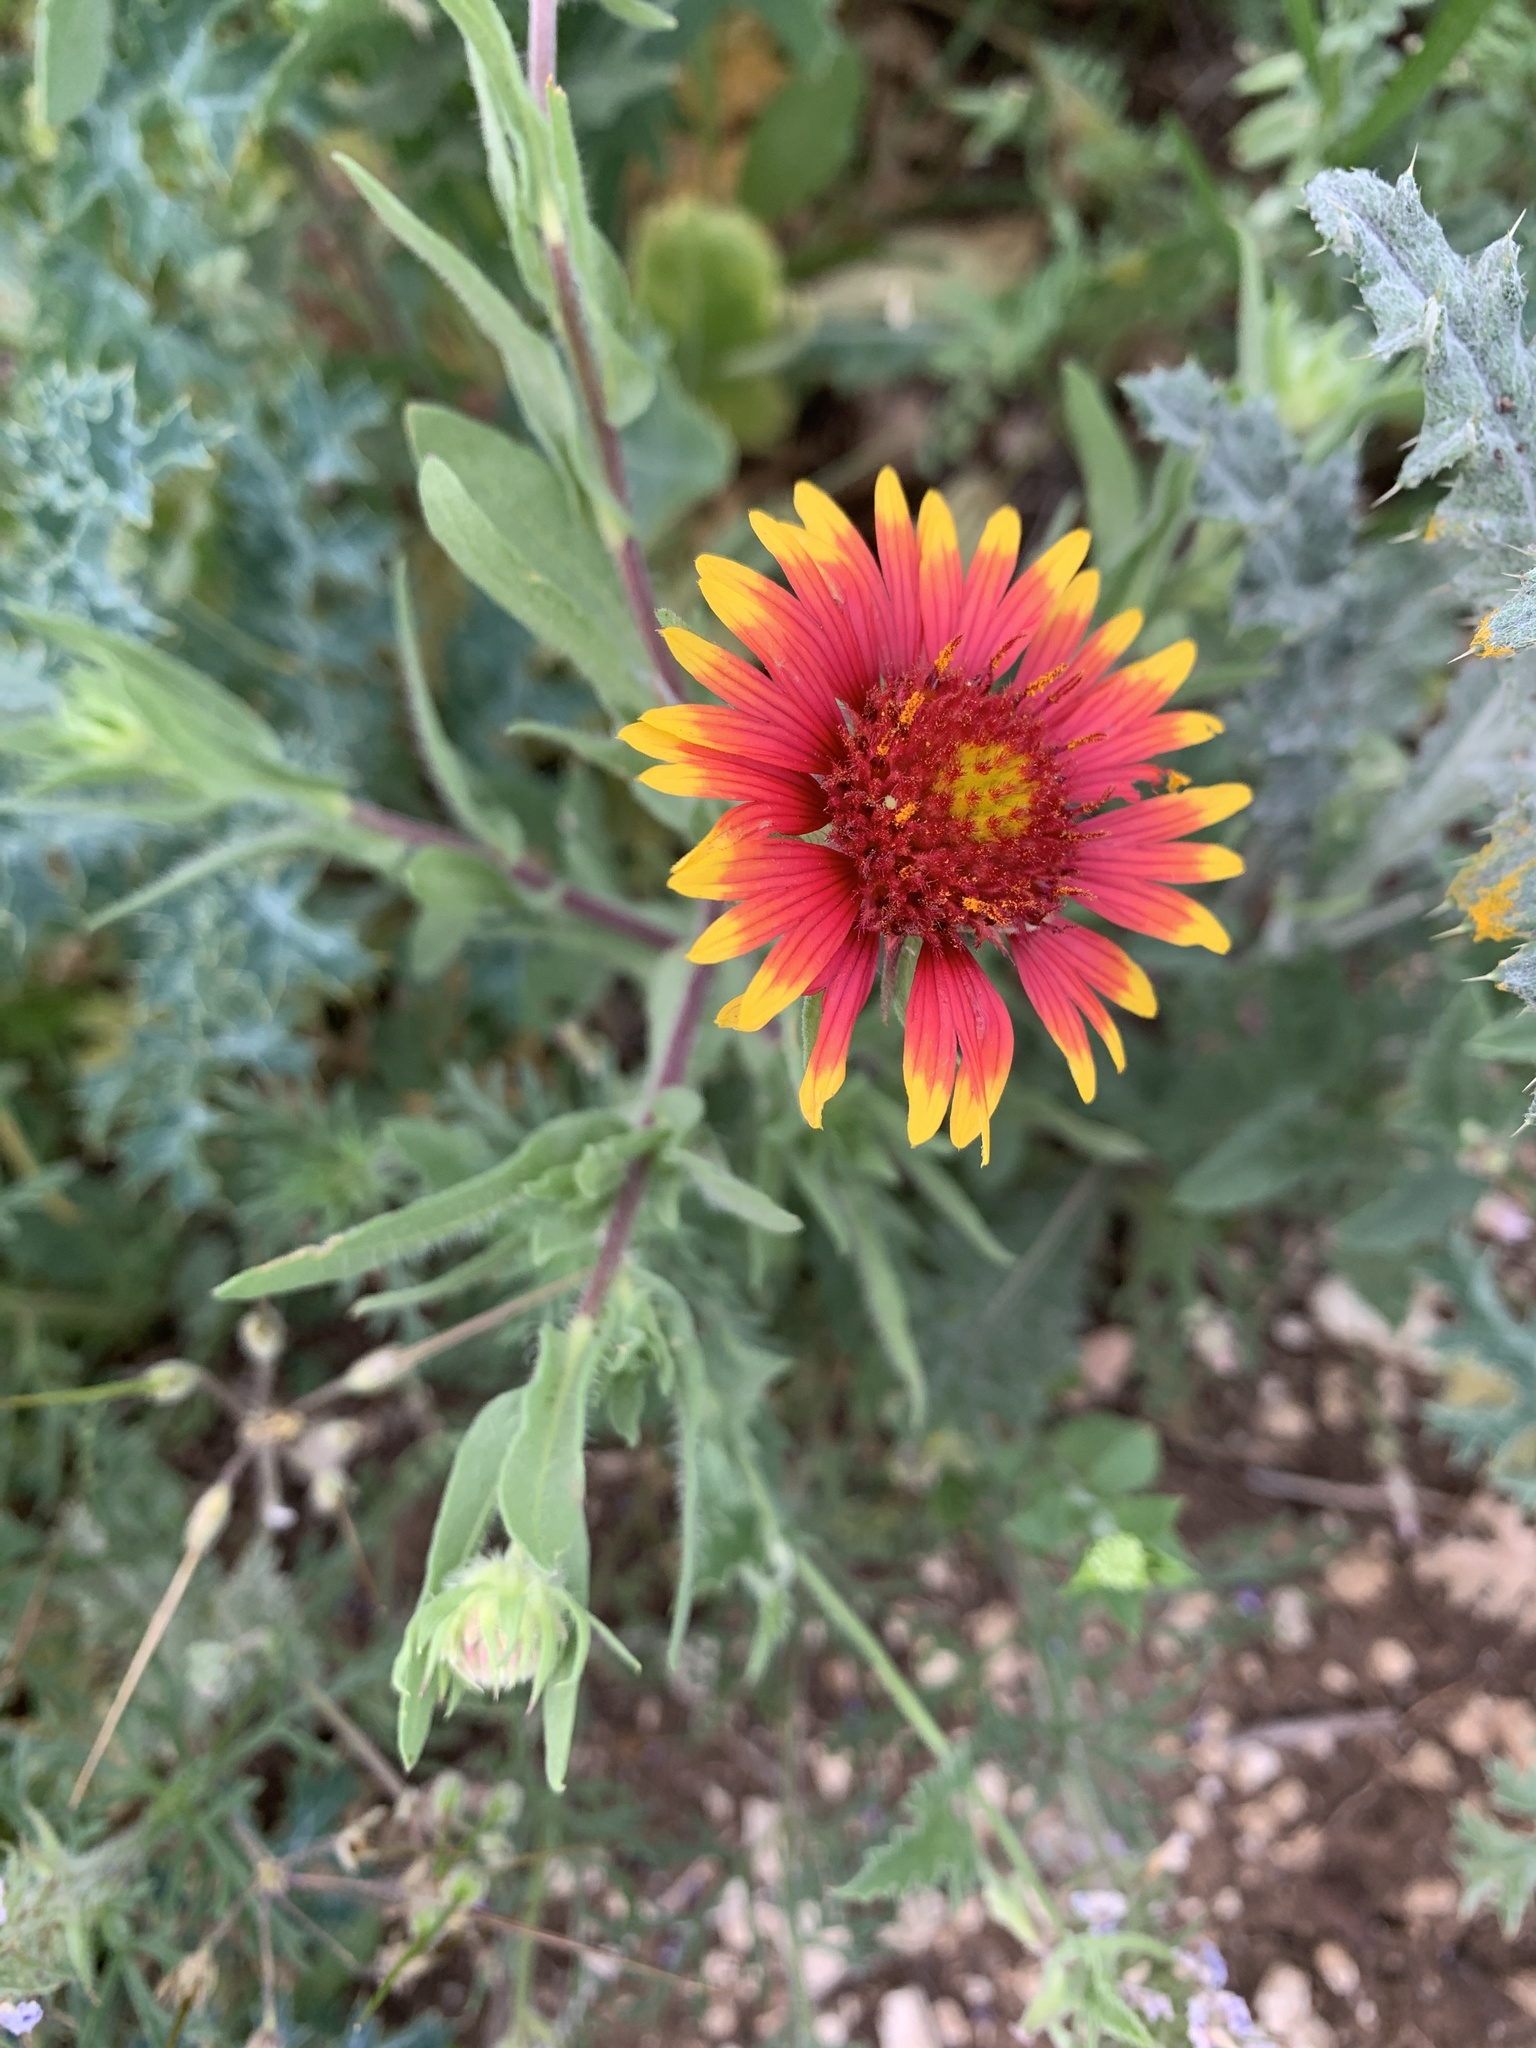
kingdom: Plantae
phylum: Tracheophyta
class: Magnoliopsida
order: Asterales
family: Asteraceae
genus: Gaillardia
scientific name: Gaillardia pulchella
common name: Firewheel
